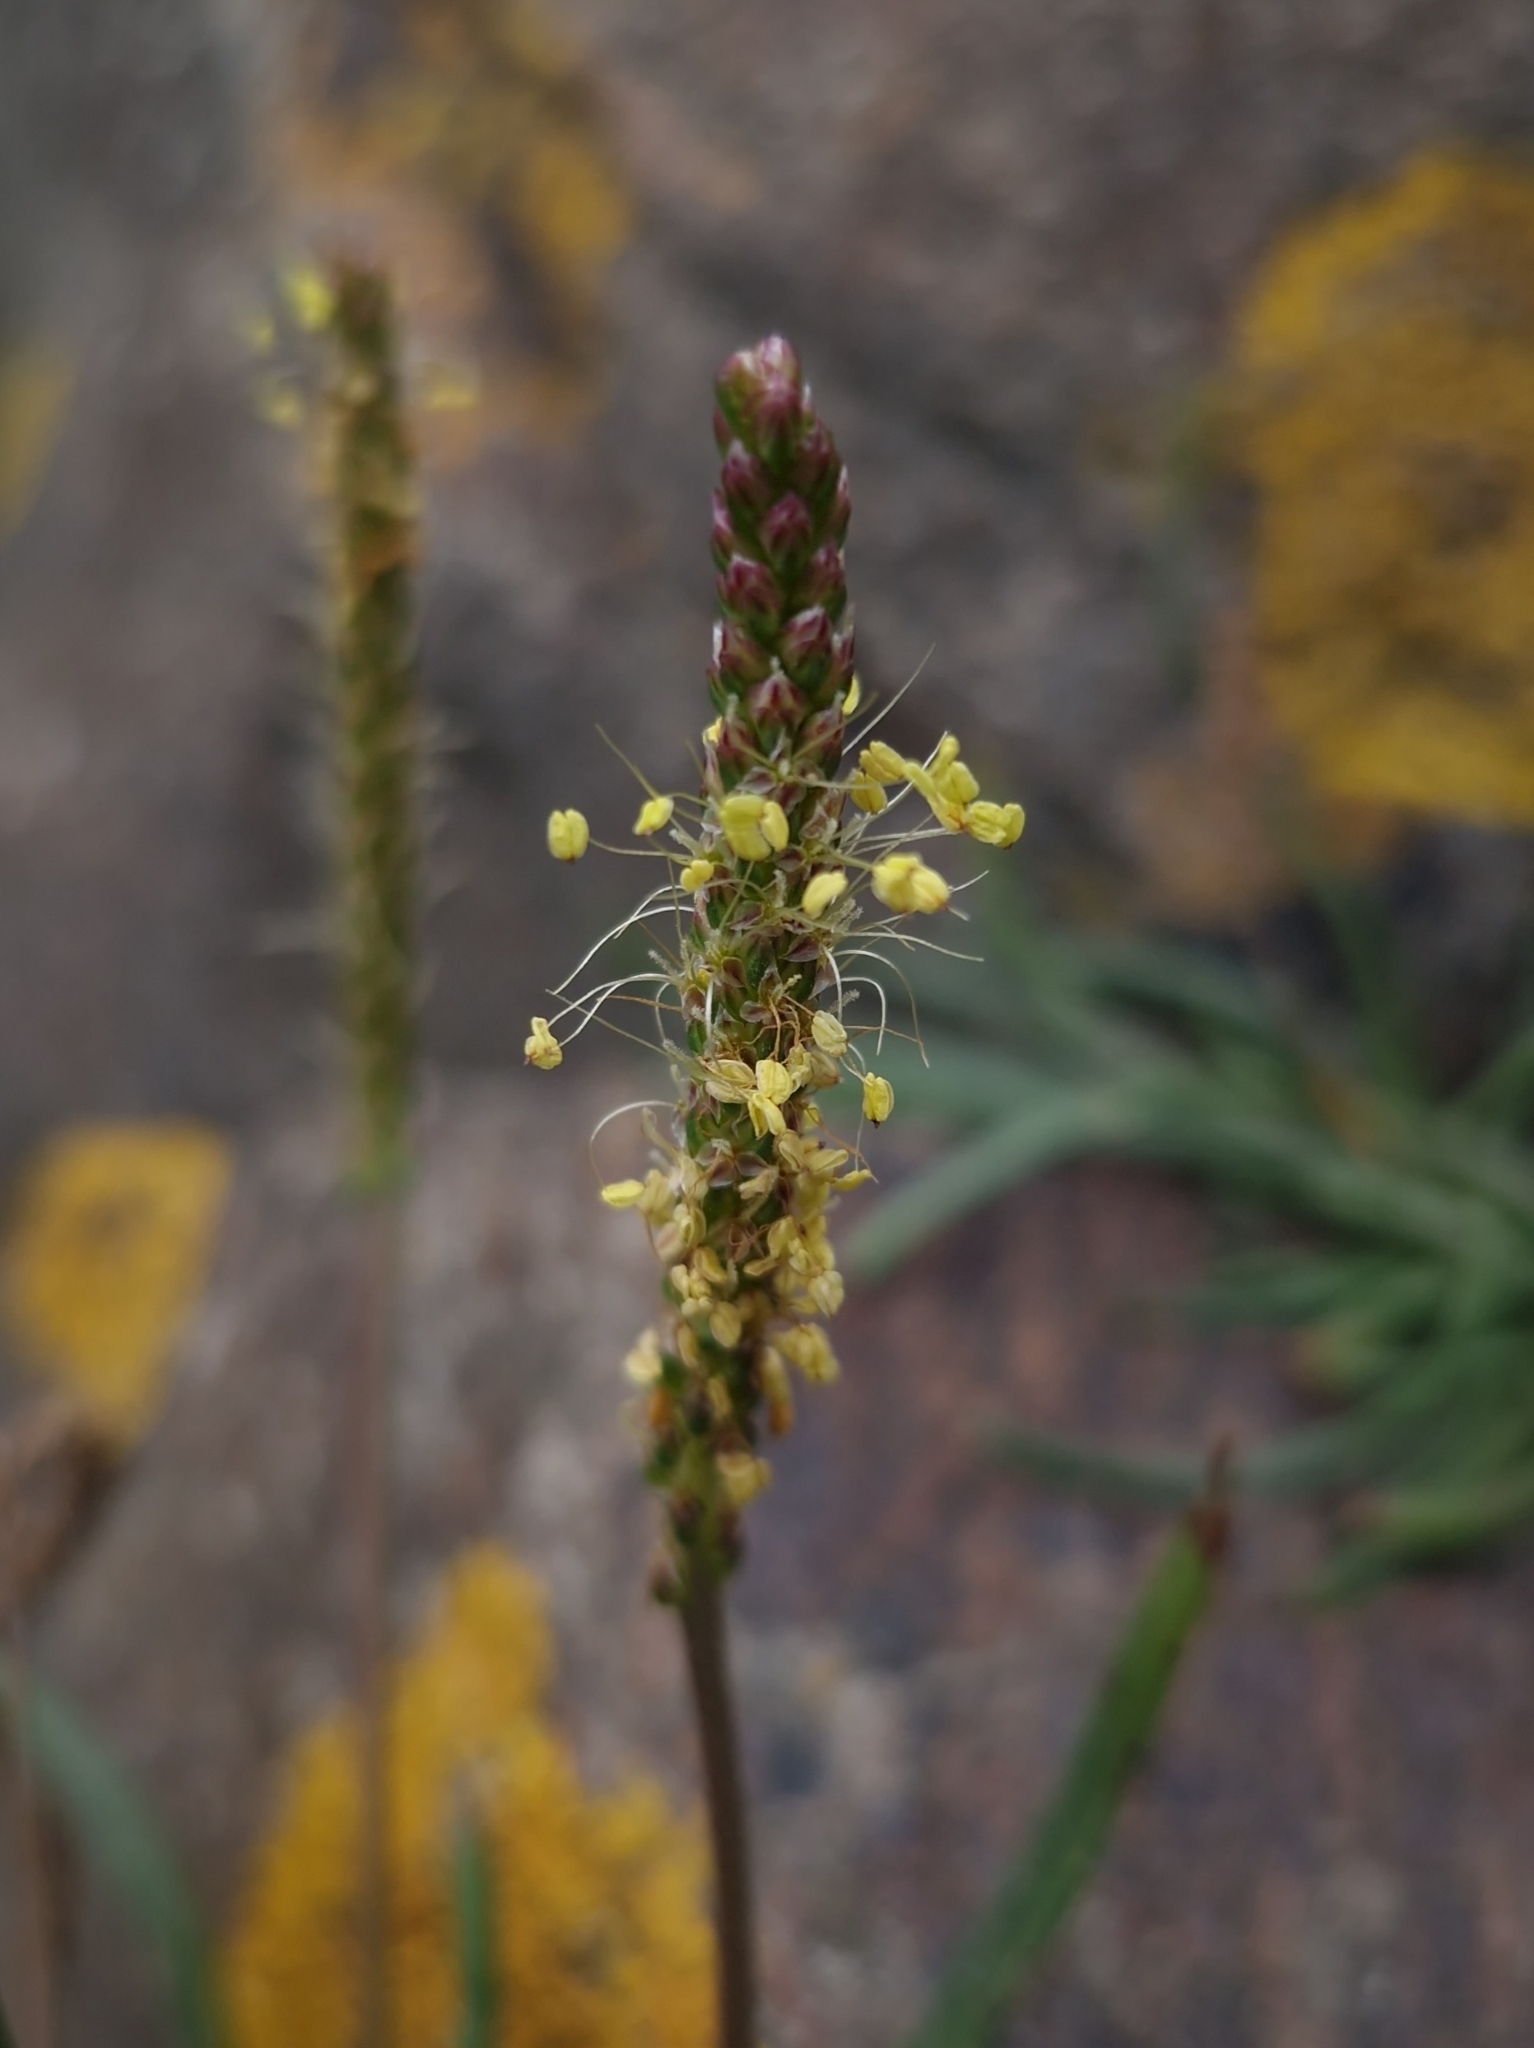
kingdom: Plantae
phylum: Tracheophyta
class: Magnoliopsida
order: Lamiales
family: Plantaginaceae
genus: Plantago
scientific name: Plantago maritima
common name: Sea plantain
